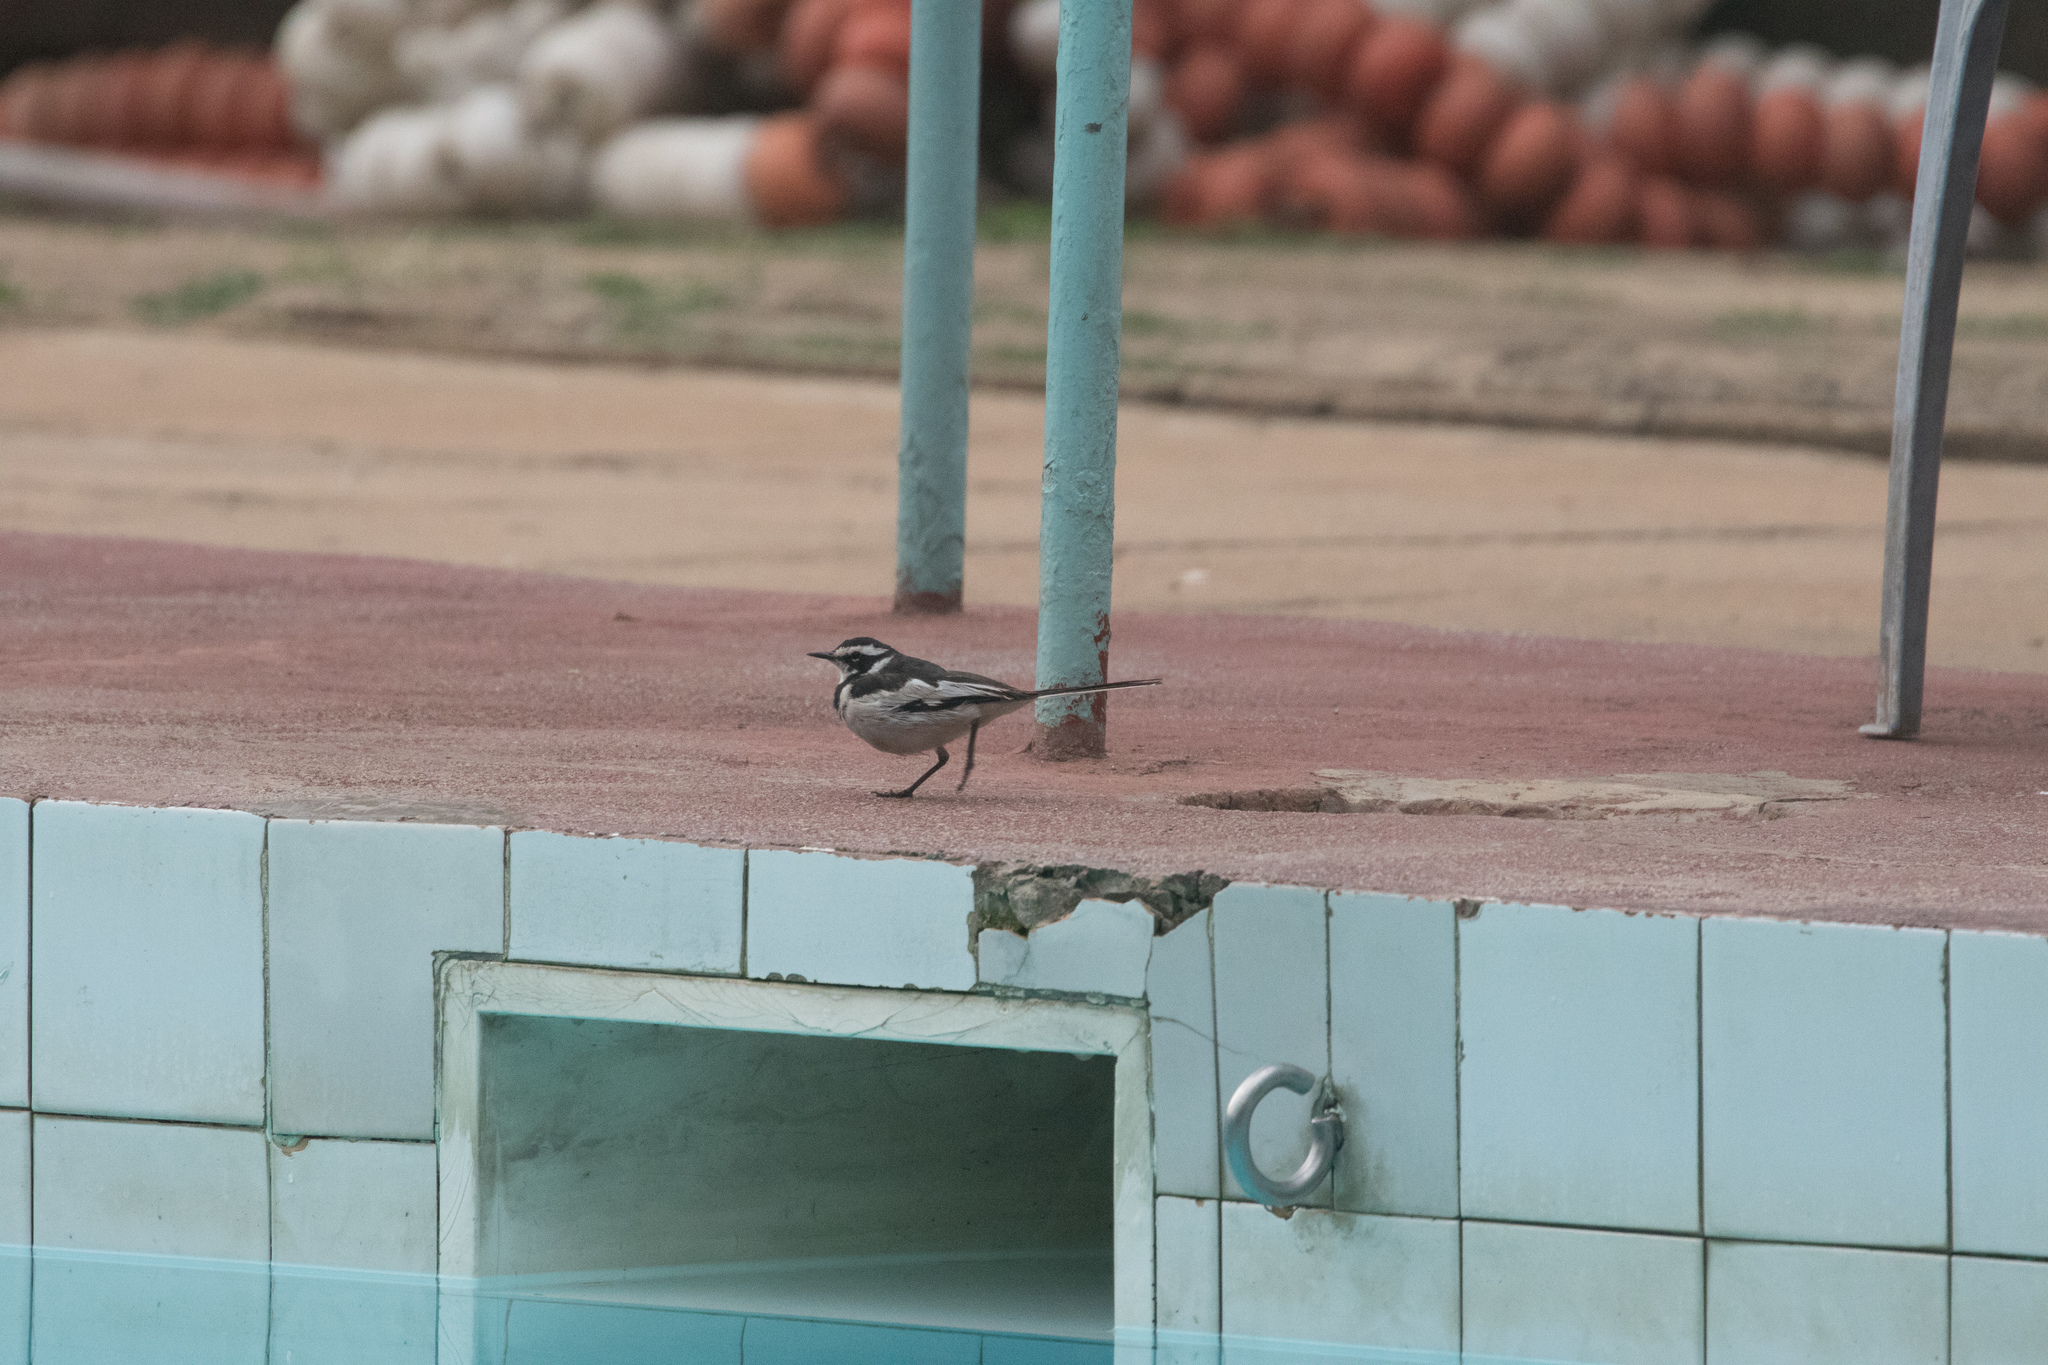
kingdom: Animalia
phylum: Chordata
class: Aves
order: Passeriformes
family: Motacillidae
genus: Motacilla
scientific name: Motacilla aguimp
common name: African pied wagtail
